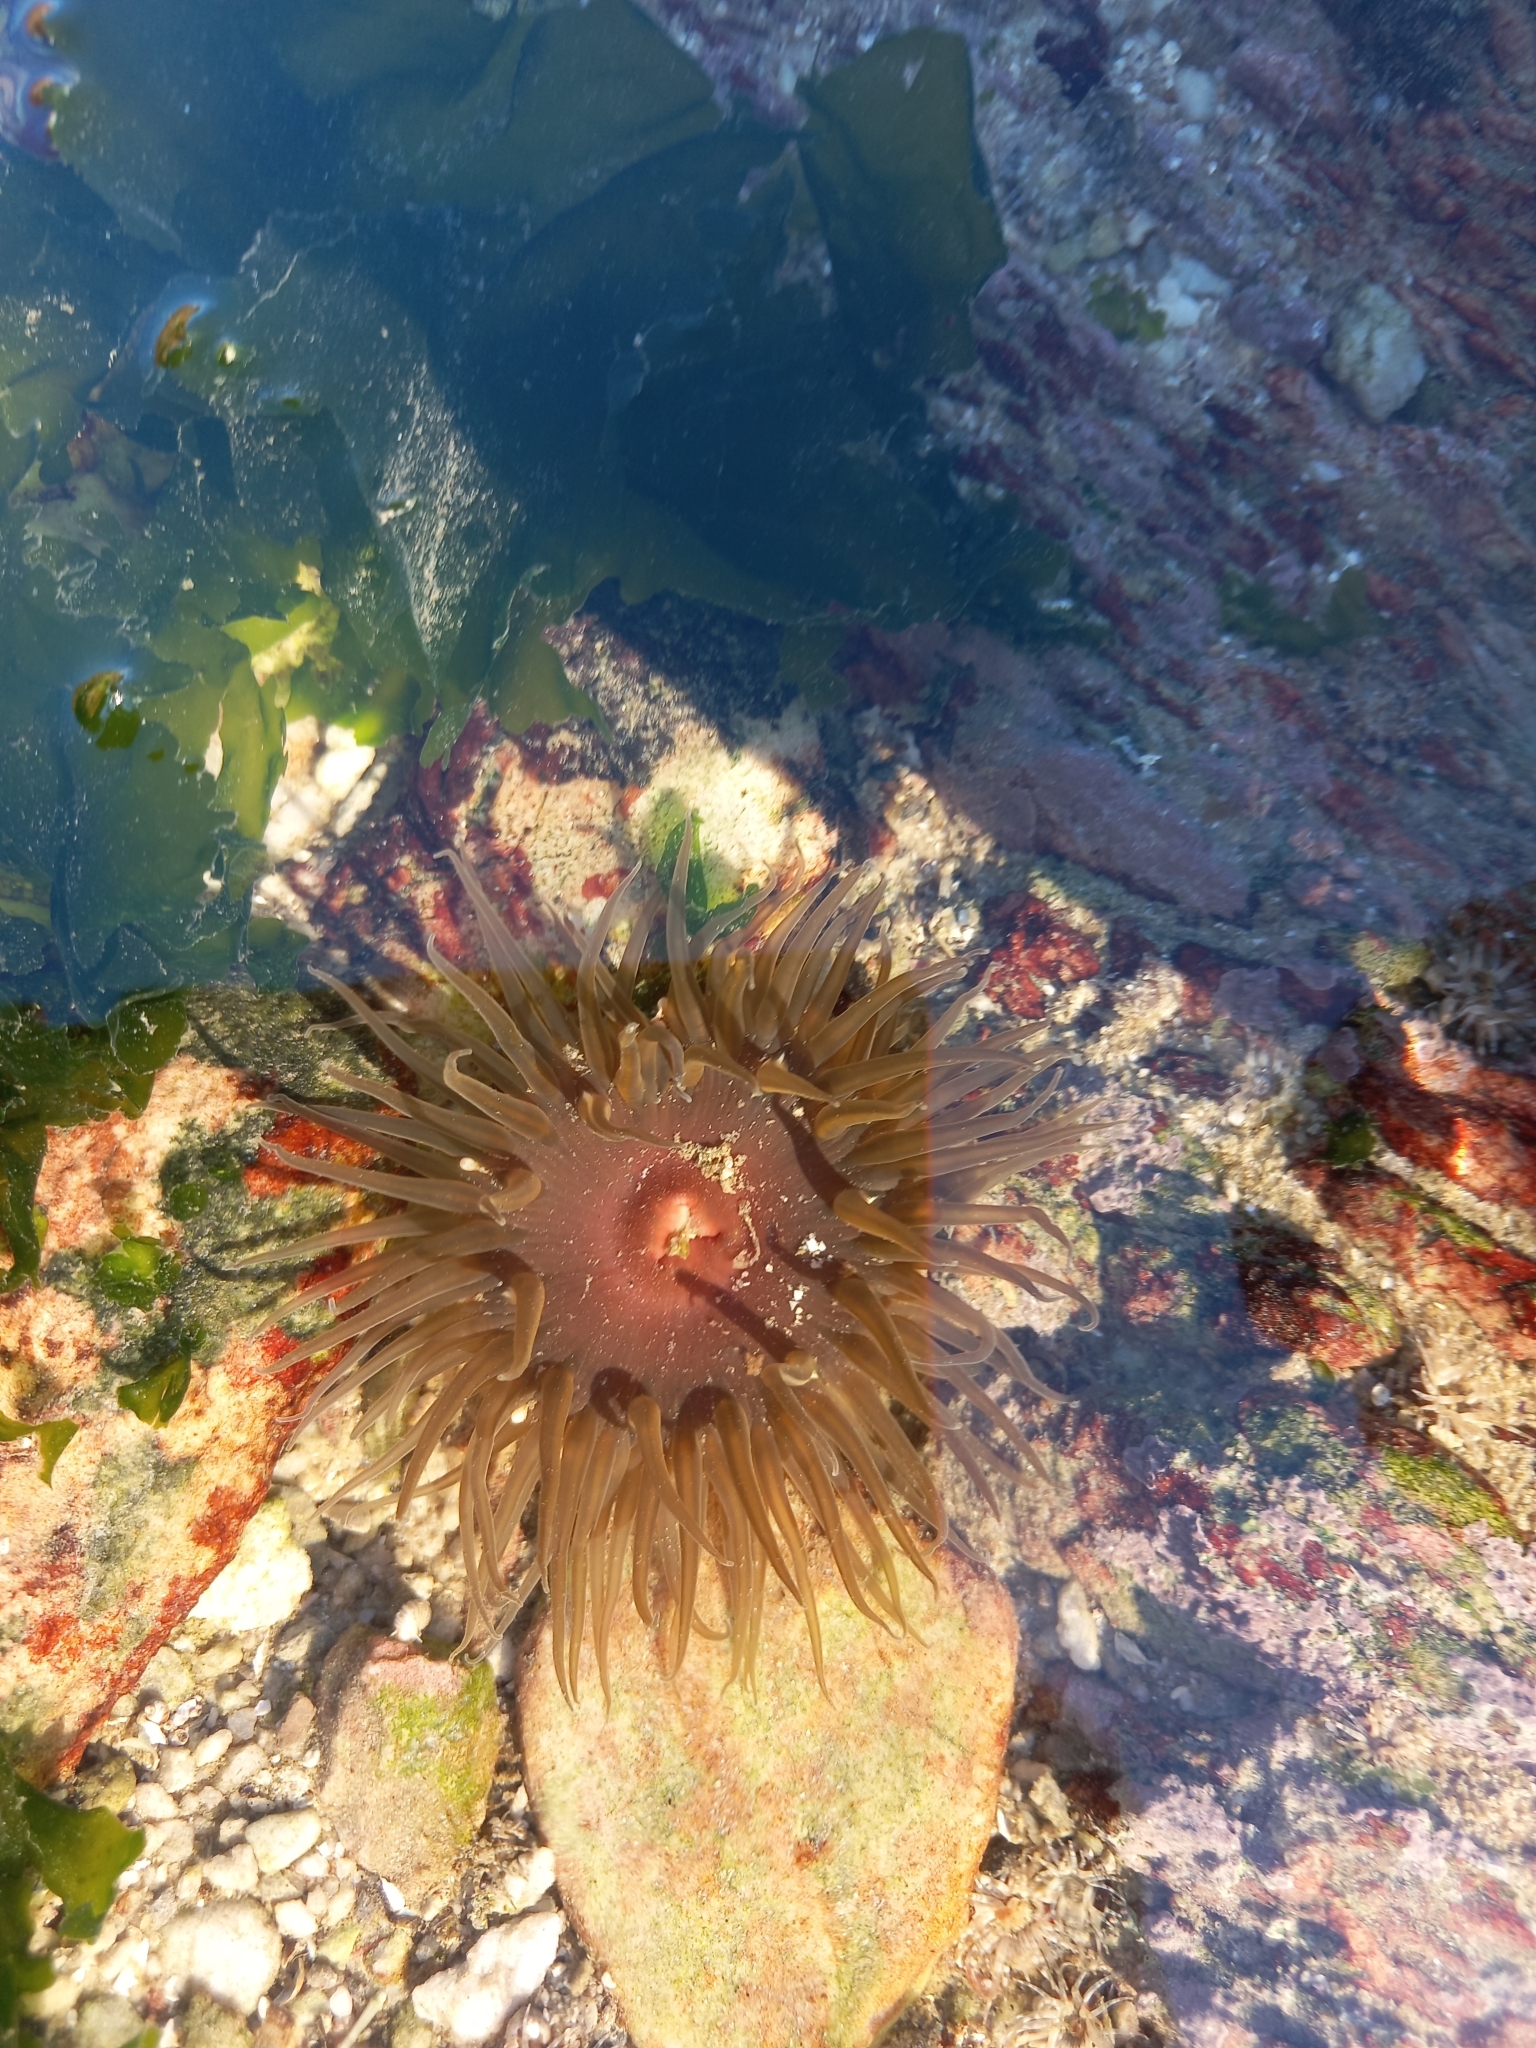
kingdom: Animalia
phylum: Cnidaria
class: Anthozoa
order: Actiniaria
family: Actiniidae
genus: Anthopleura
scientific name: Anthopleura michaelseni
